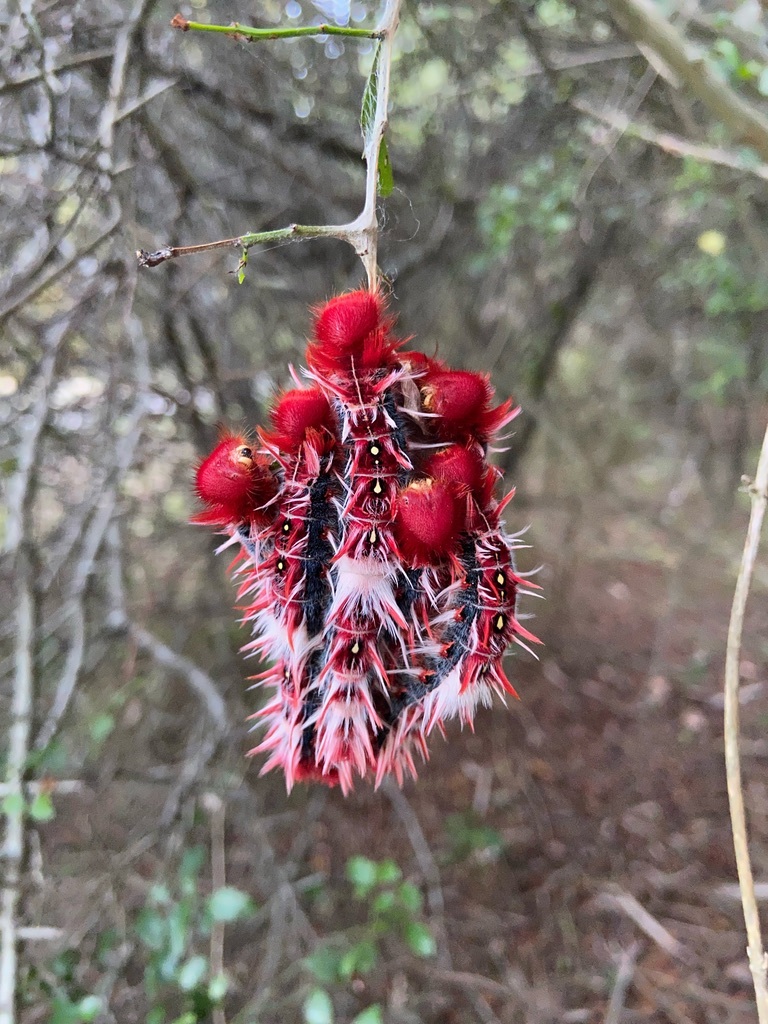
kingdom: Animalia
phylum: Arthropoda
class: Insecta
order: Lepidoptera
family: Nymphalidae
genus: Morpho
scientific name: Morpho epistrophus
